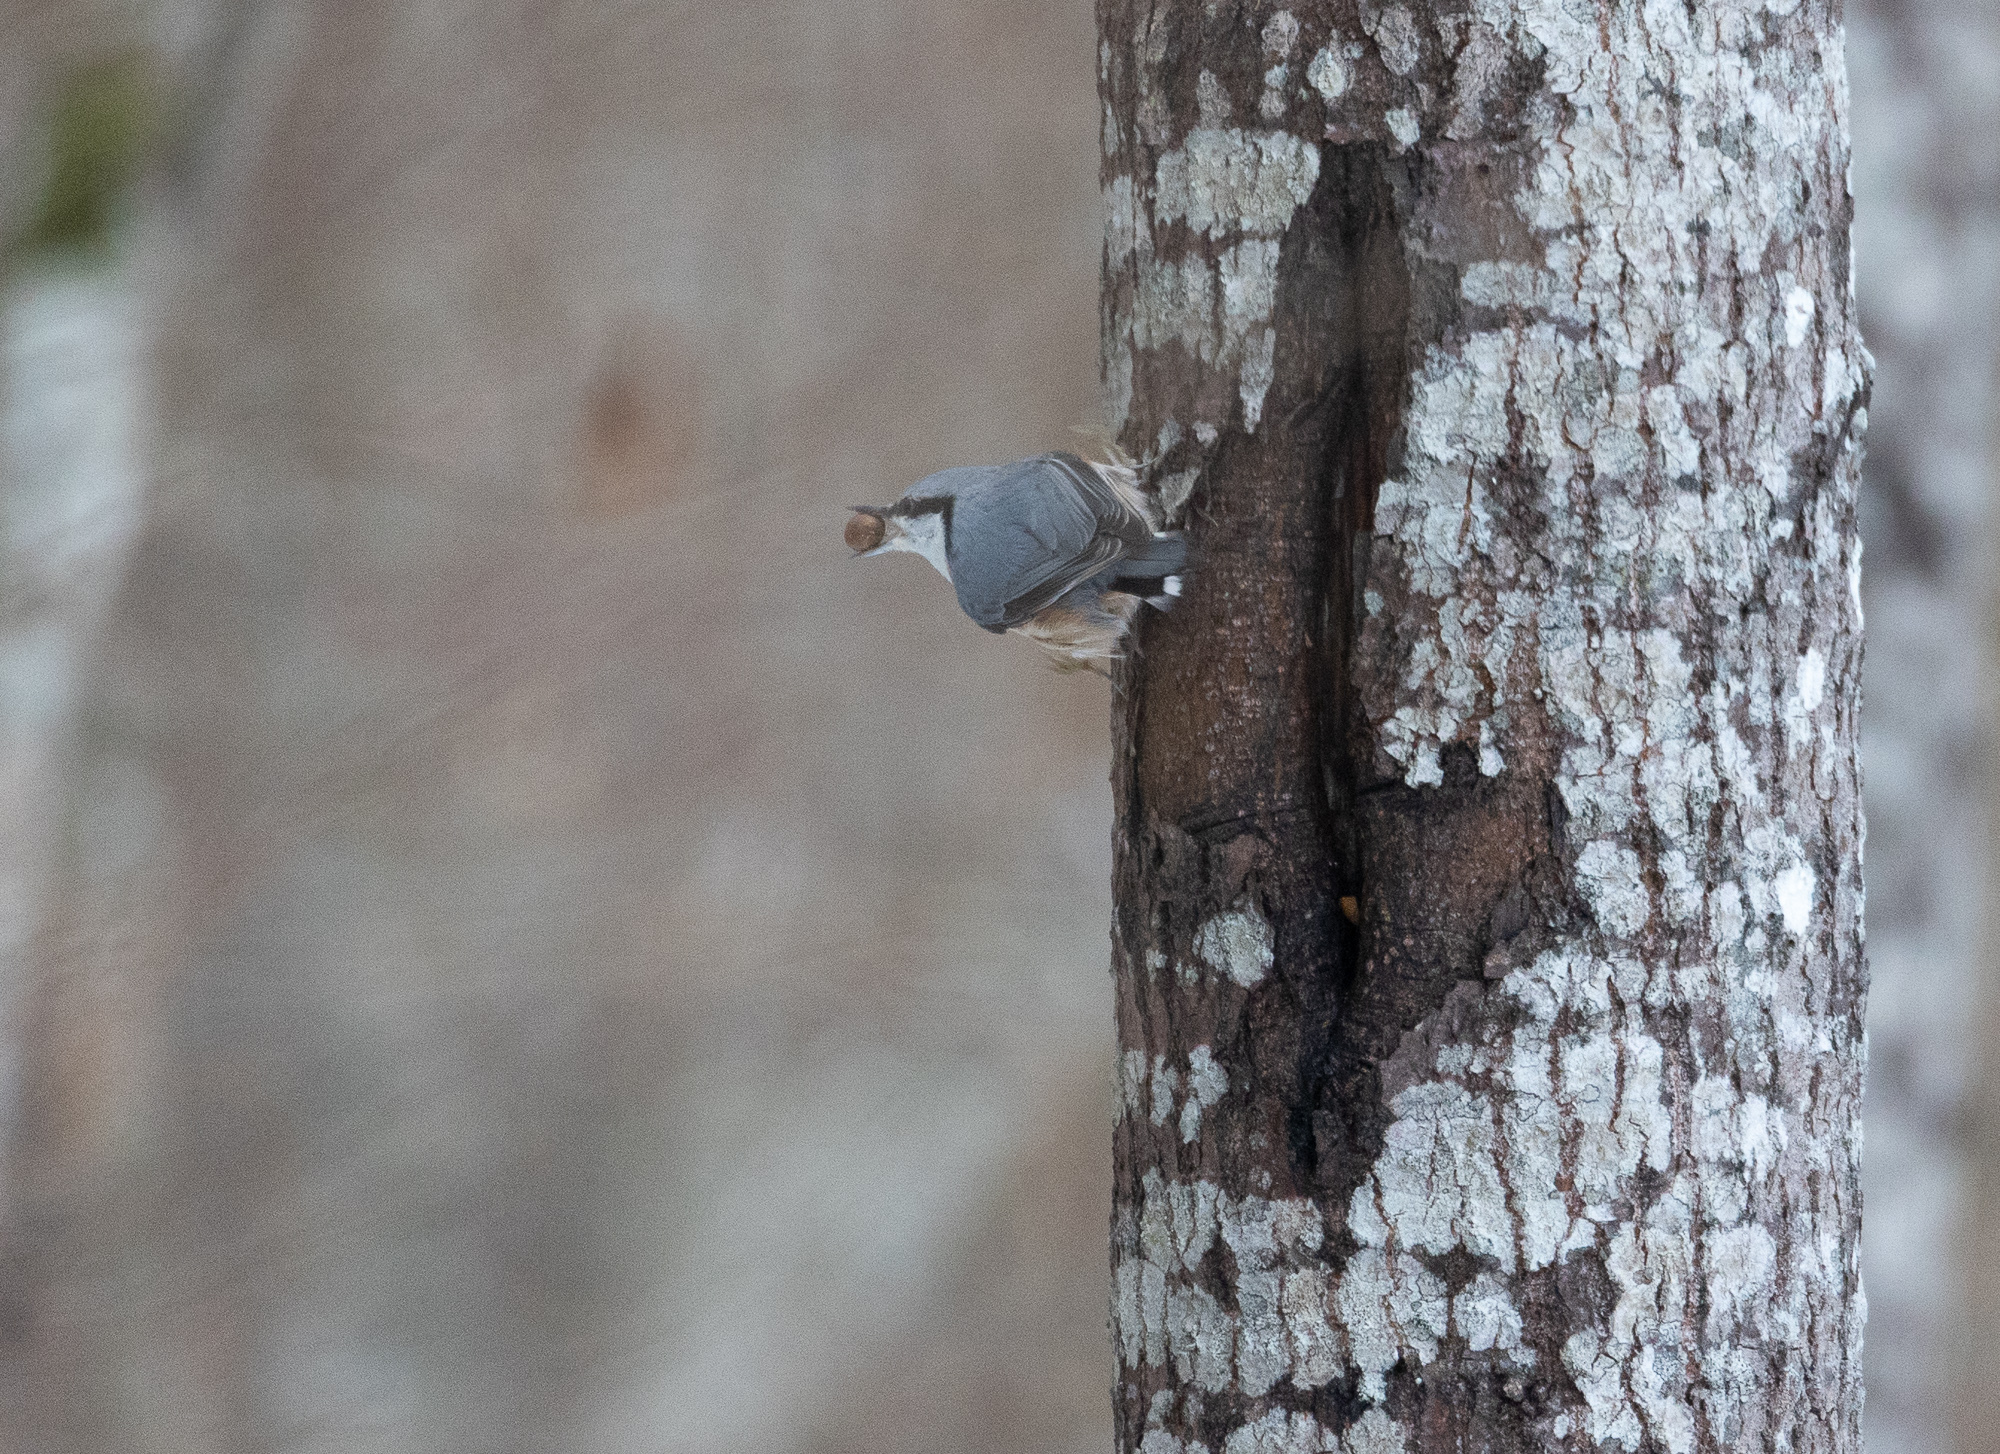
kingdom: Animalia
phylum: Chordata
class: Aves
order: Passeriformes
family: Sittidae
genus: Sitta
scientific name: Sitta europaea
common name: Eurasian nuthatch
